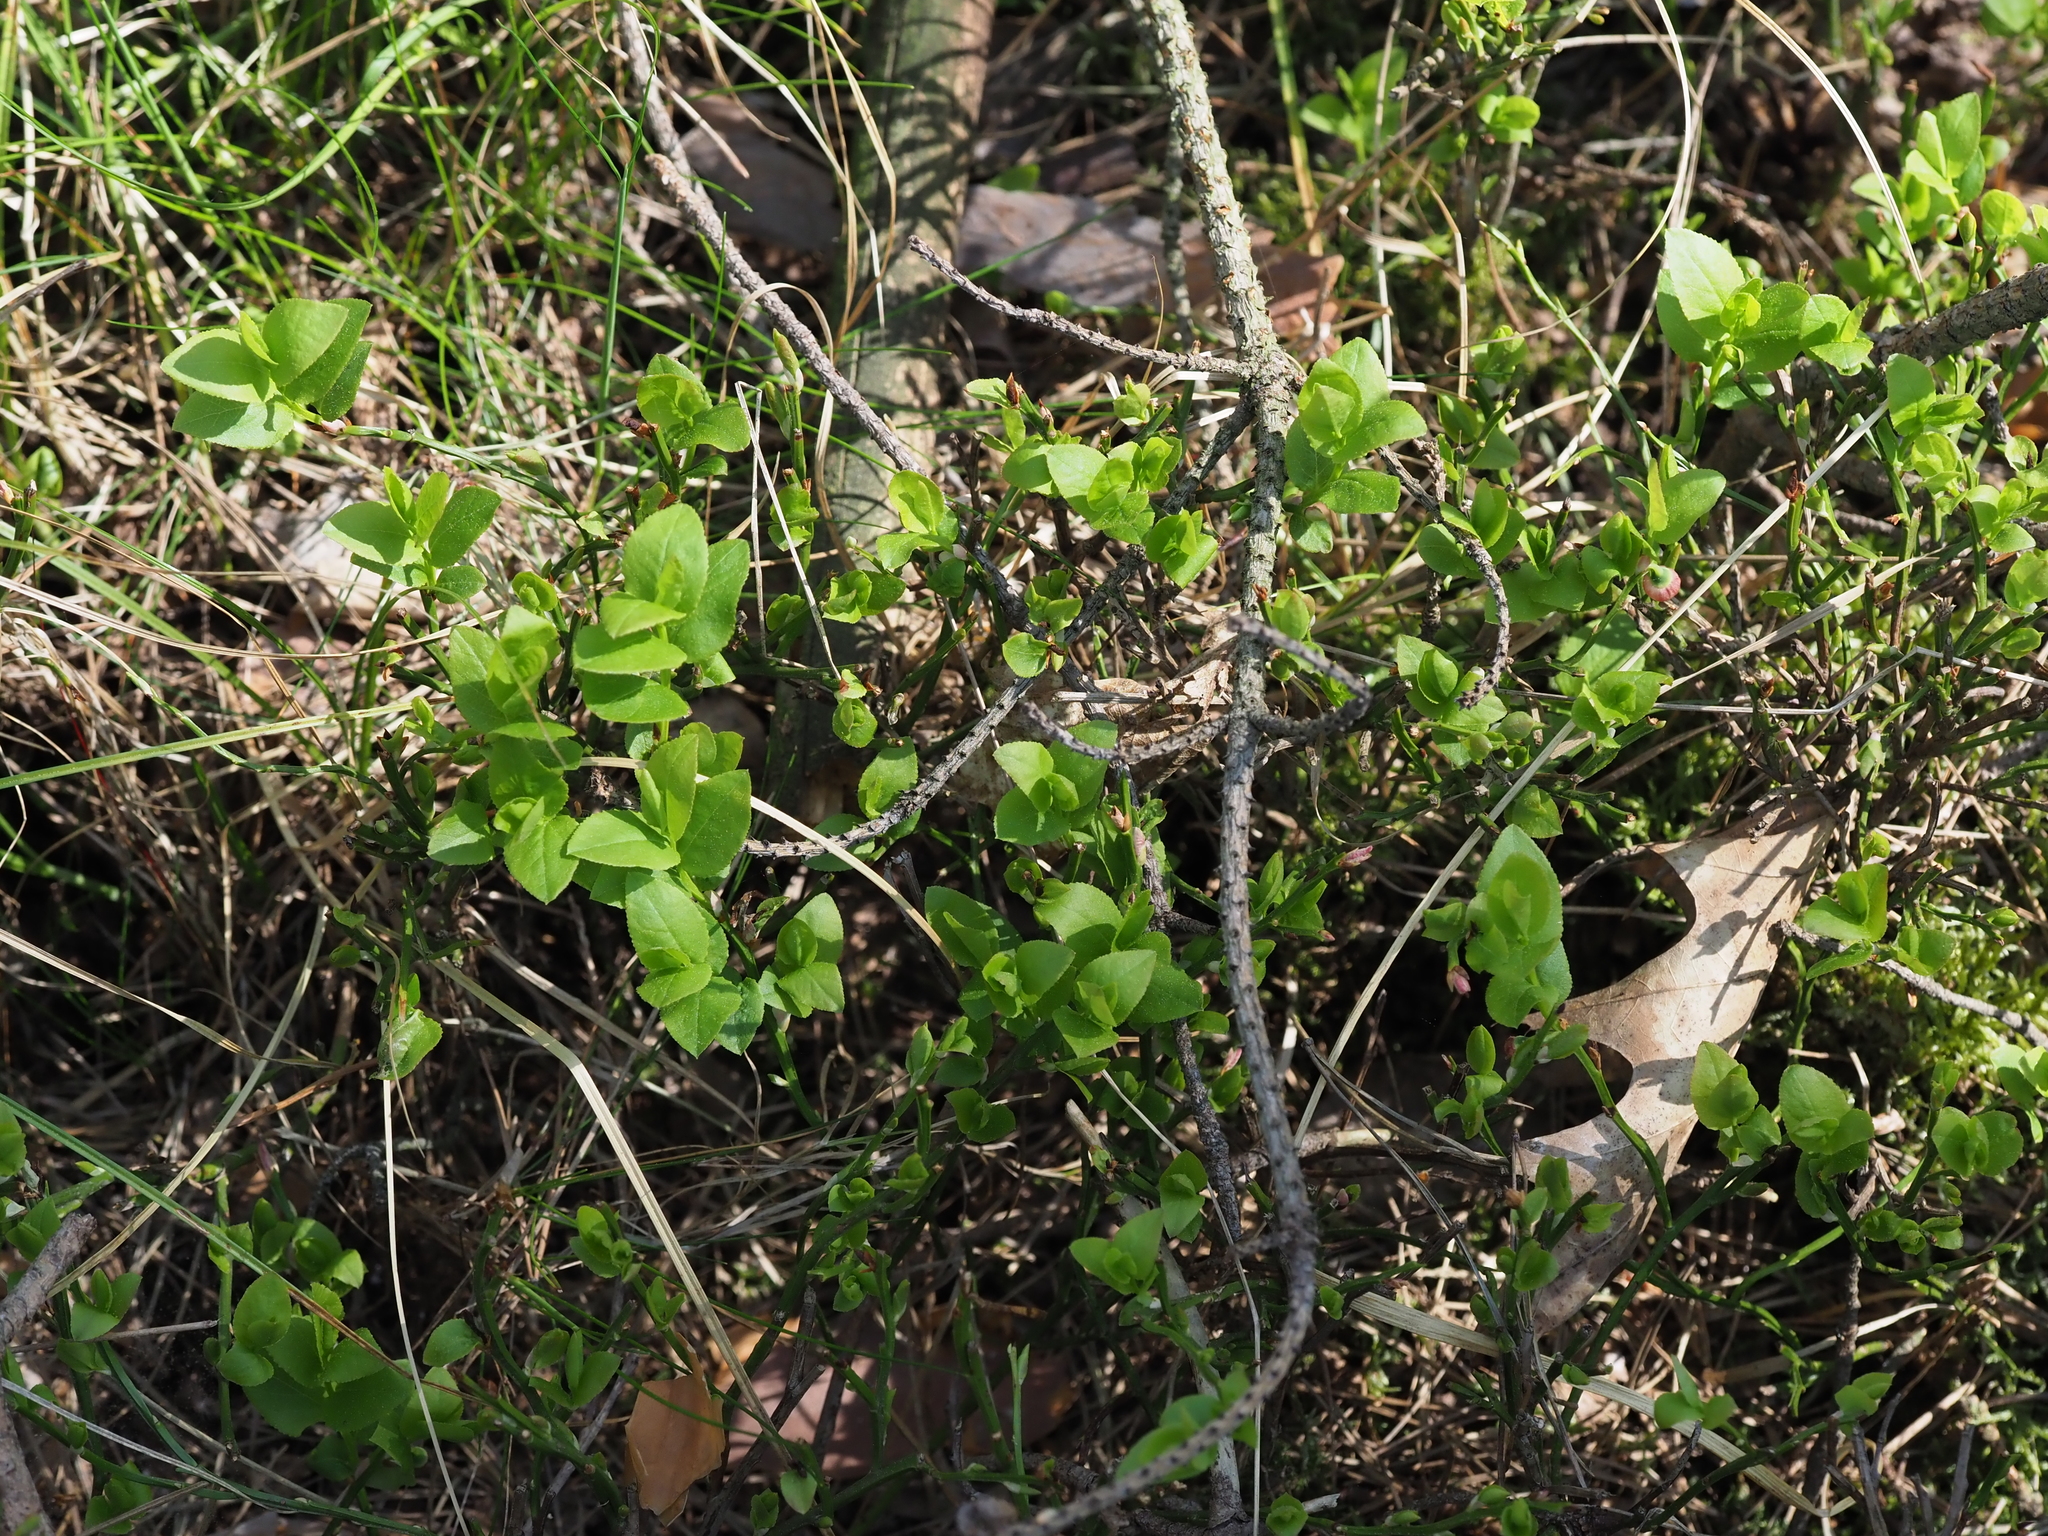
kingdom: Plantae
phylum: Tracheophyta
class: Magnoliopsida
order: Ericales
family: Ericaceae
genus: Vaccinium
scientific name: Vaccinium myrtillus
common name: Bilberry
